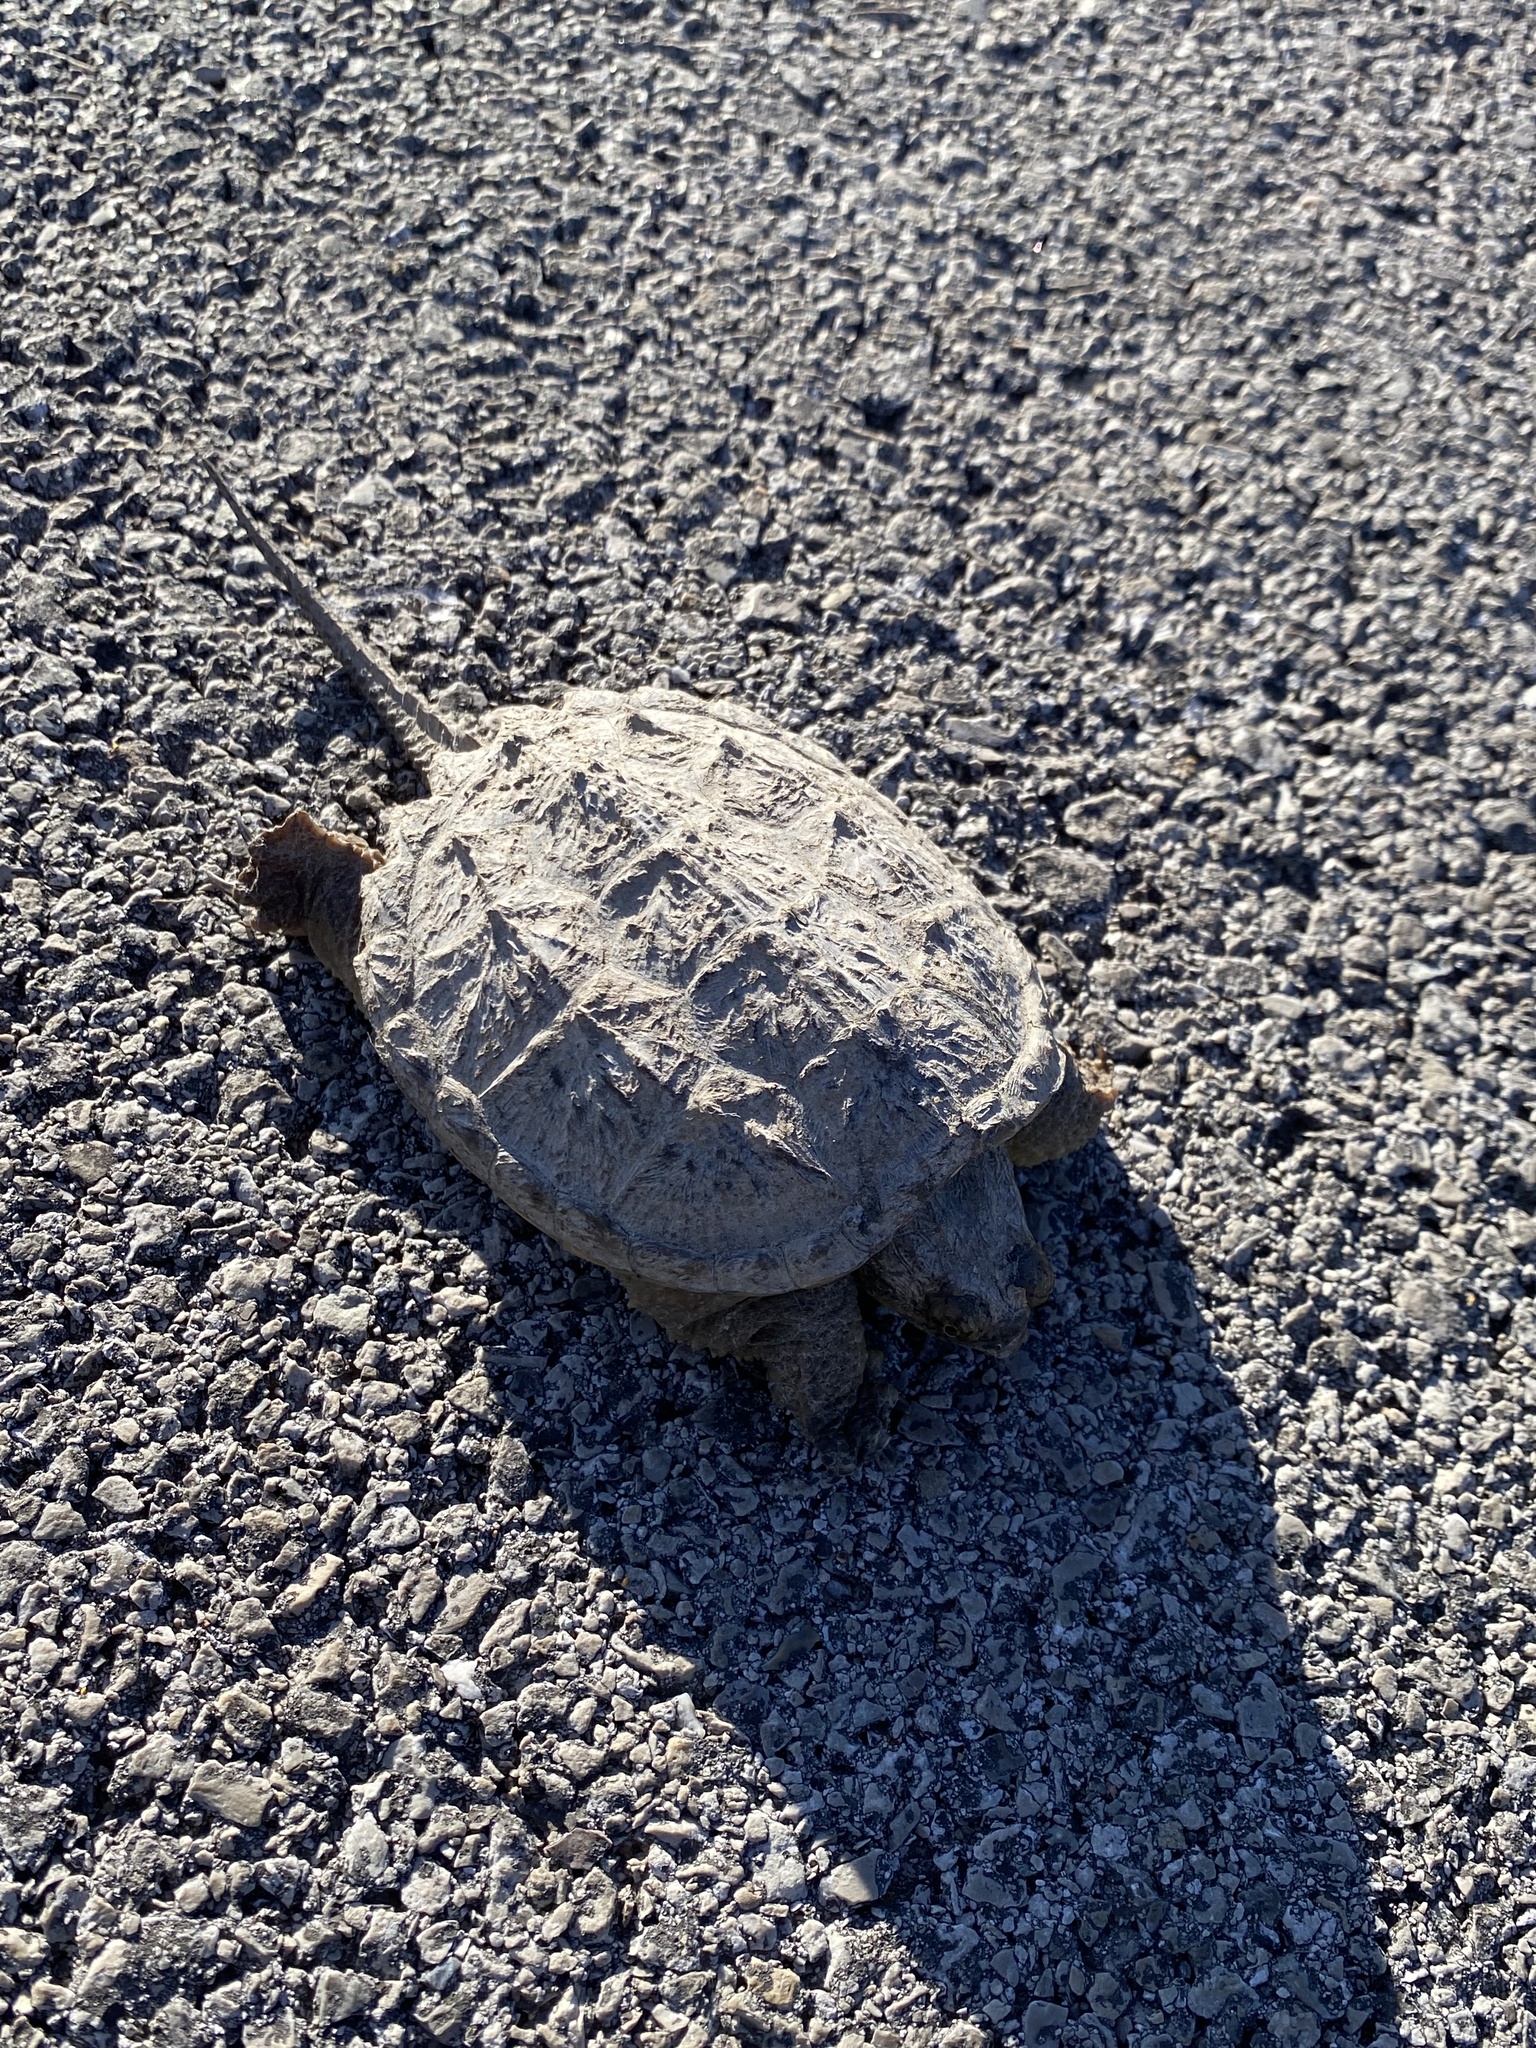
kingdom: Animalia
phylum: Chordata
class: Testudines
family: Chelydridae
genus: Chelydra
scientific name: Chelydra serpentina
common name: Common snapping turtle
